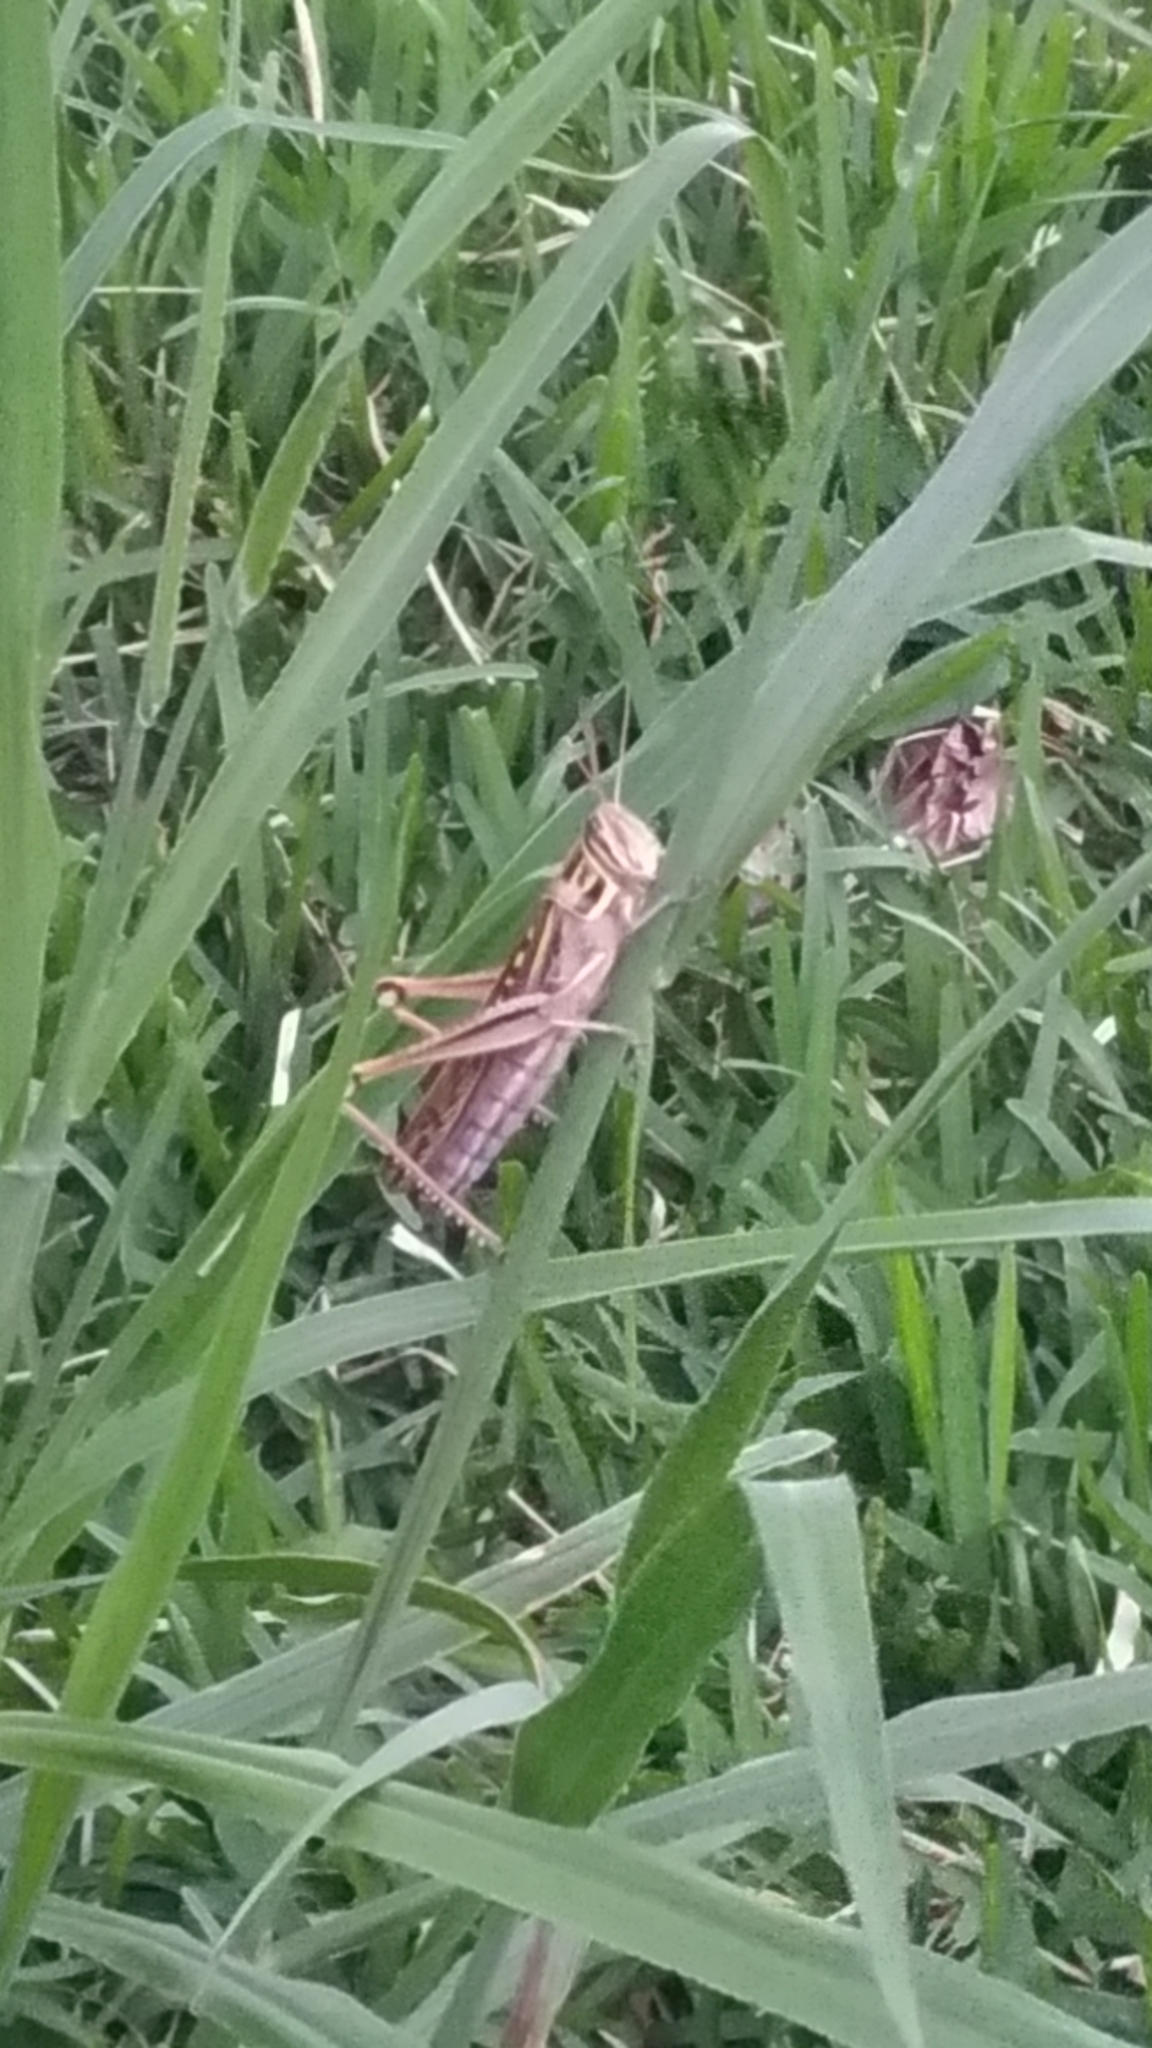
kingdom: Animalia
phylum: Arthropoda
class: Insecta
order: Orthoptera
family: Acrididae
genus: Patanga
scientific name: Patanga succincta
